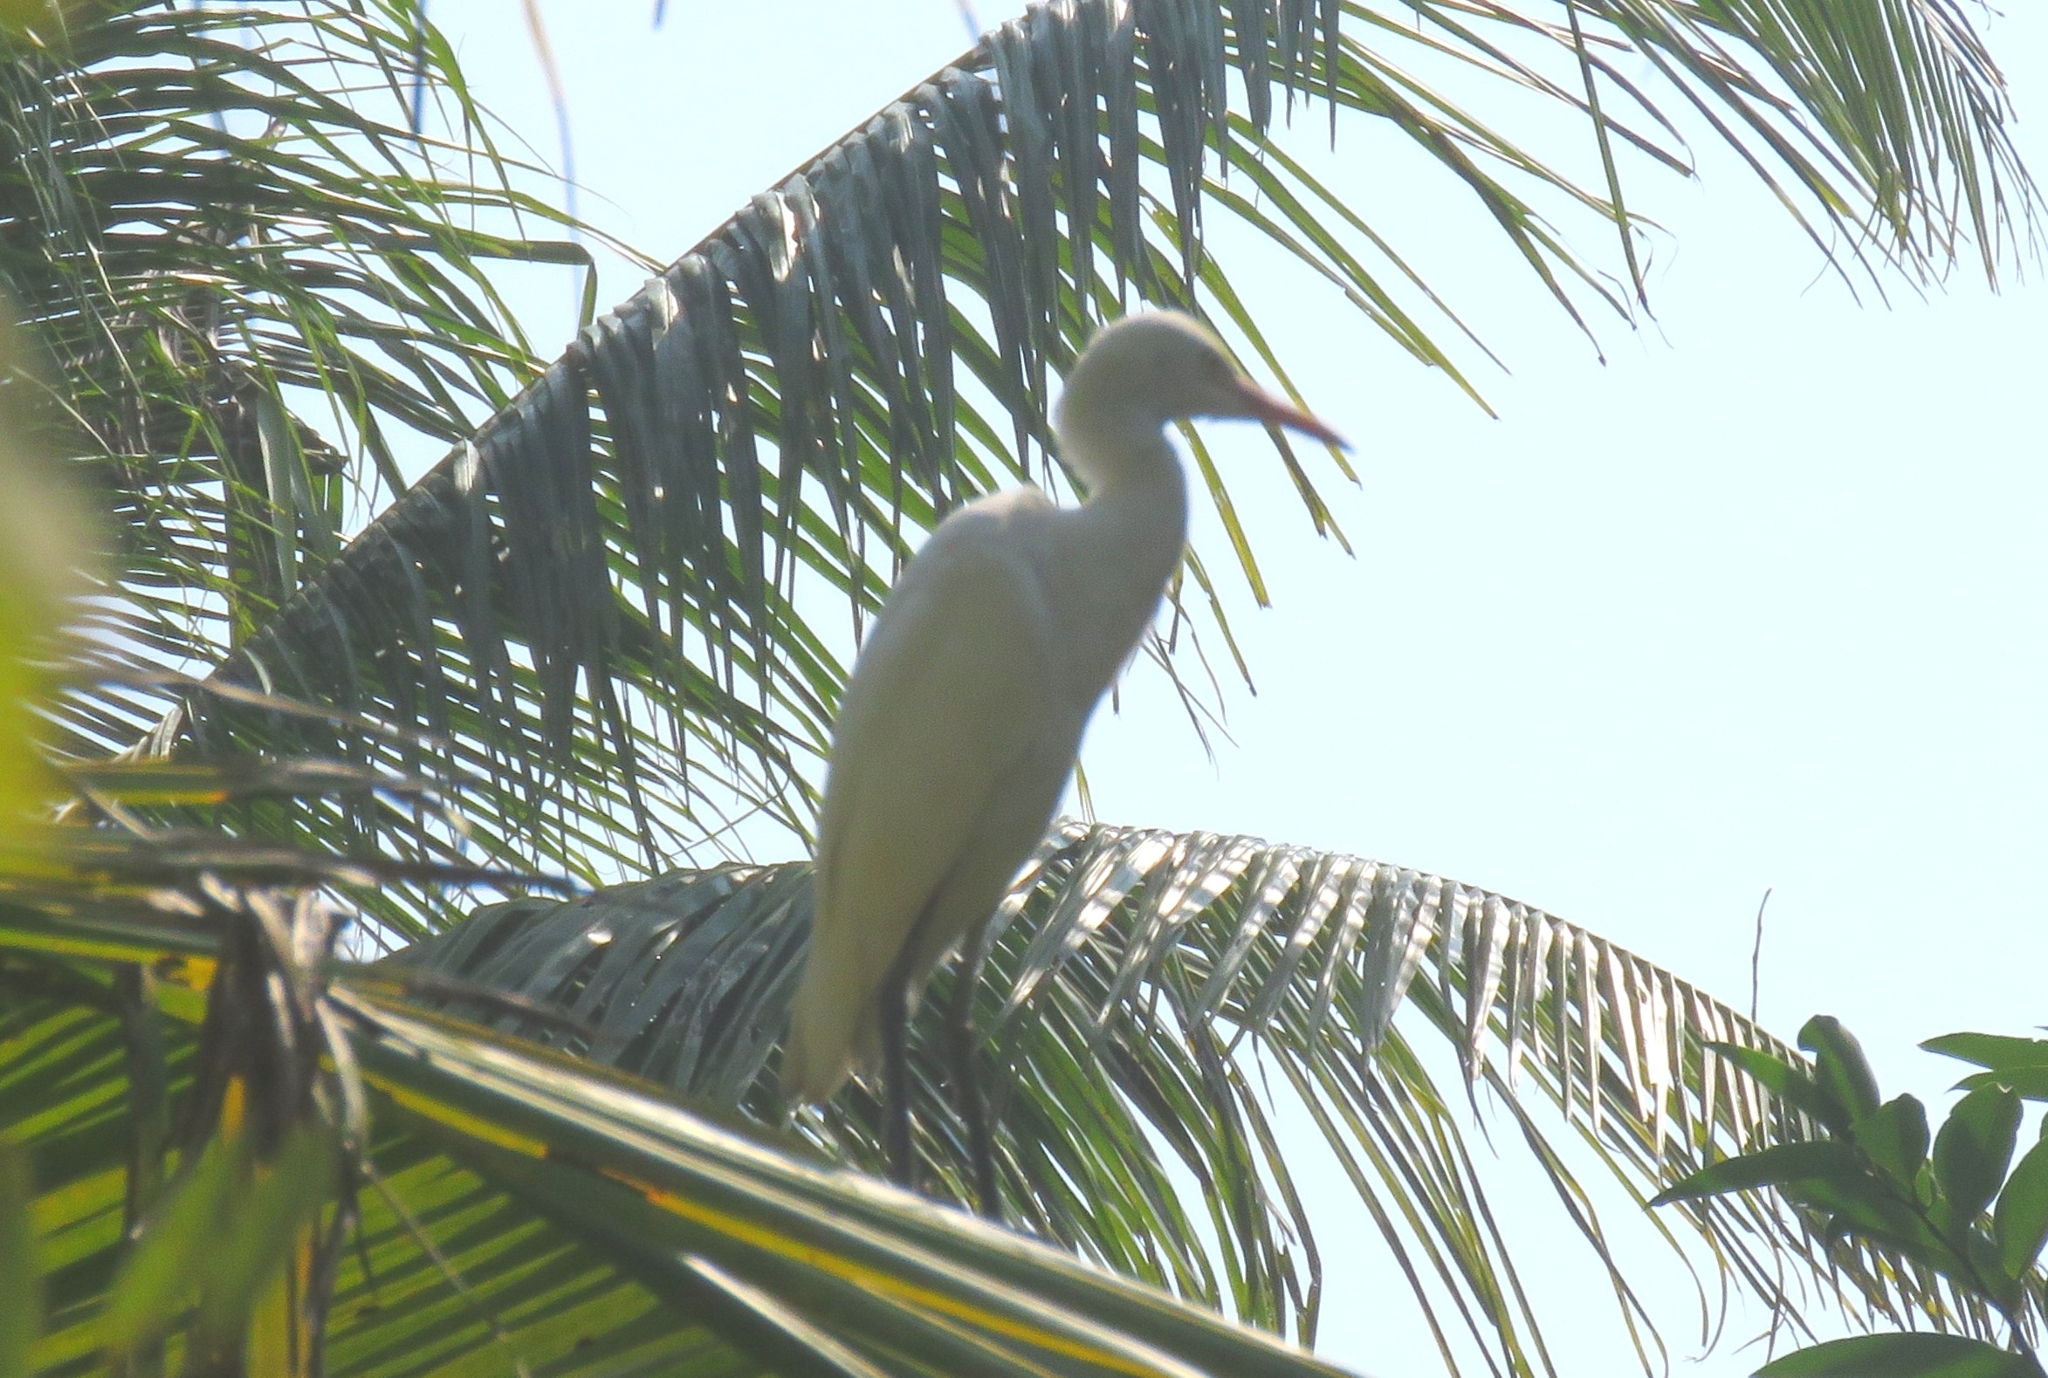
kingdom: Animalia
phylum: Chordata
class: Aves
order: Pelecaniformes
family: Ardeidae
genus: Bubulcus
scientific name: Bubulcus coromandus
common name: Eastern cattle egret
